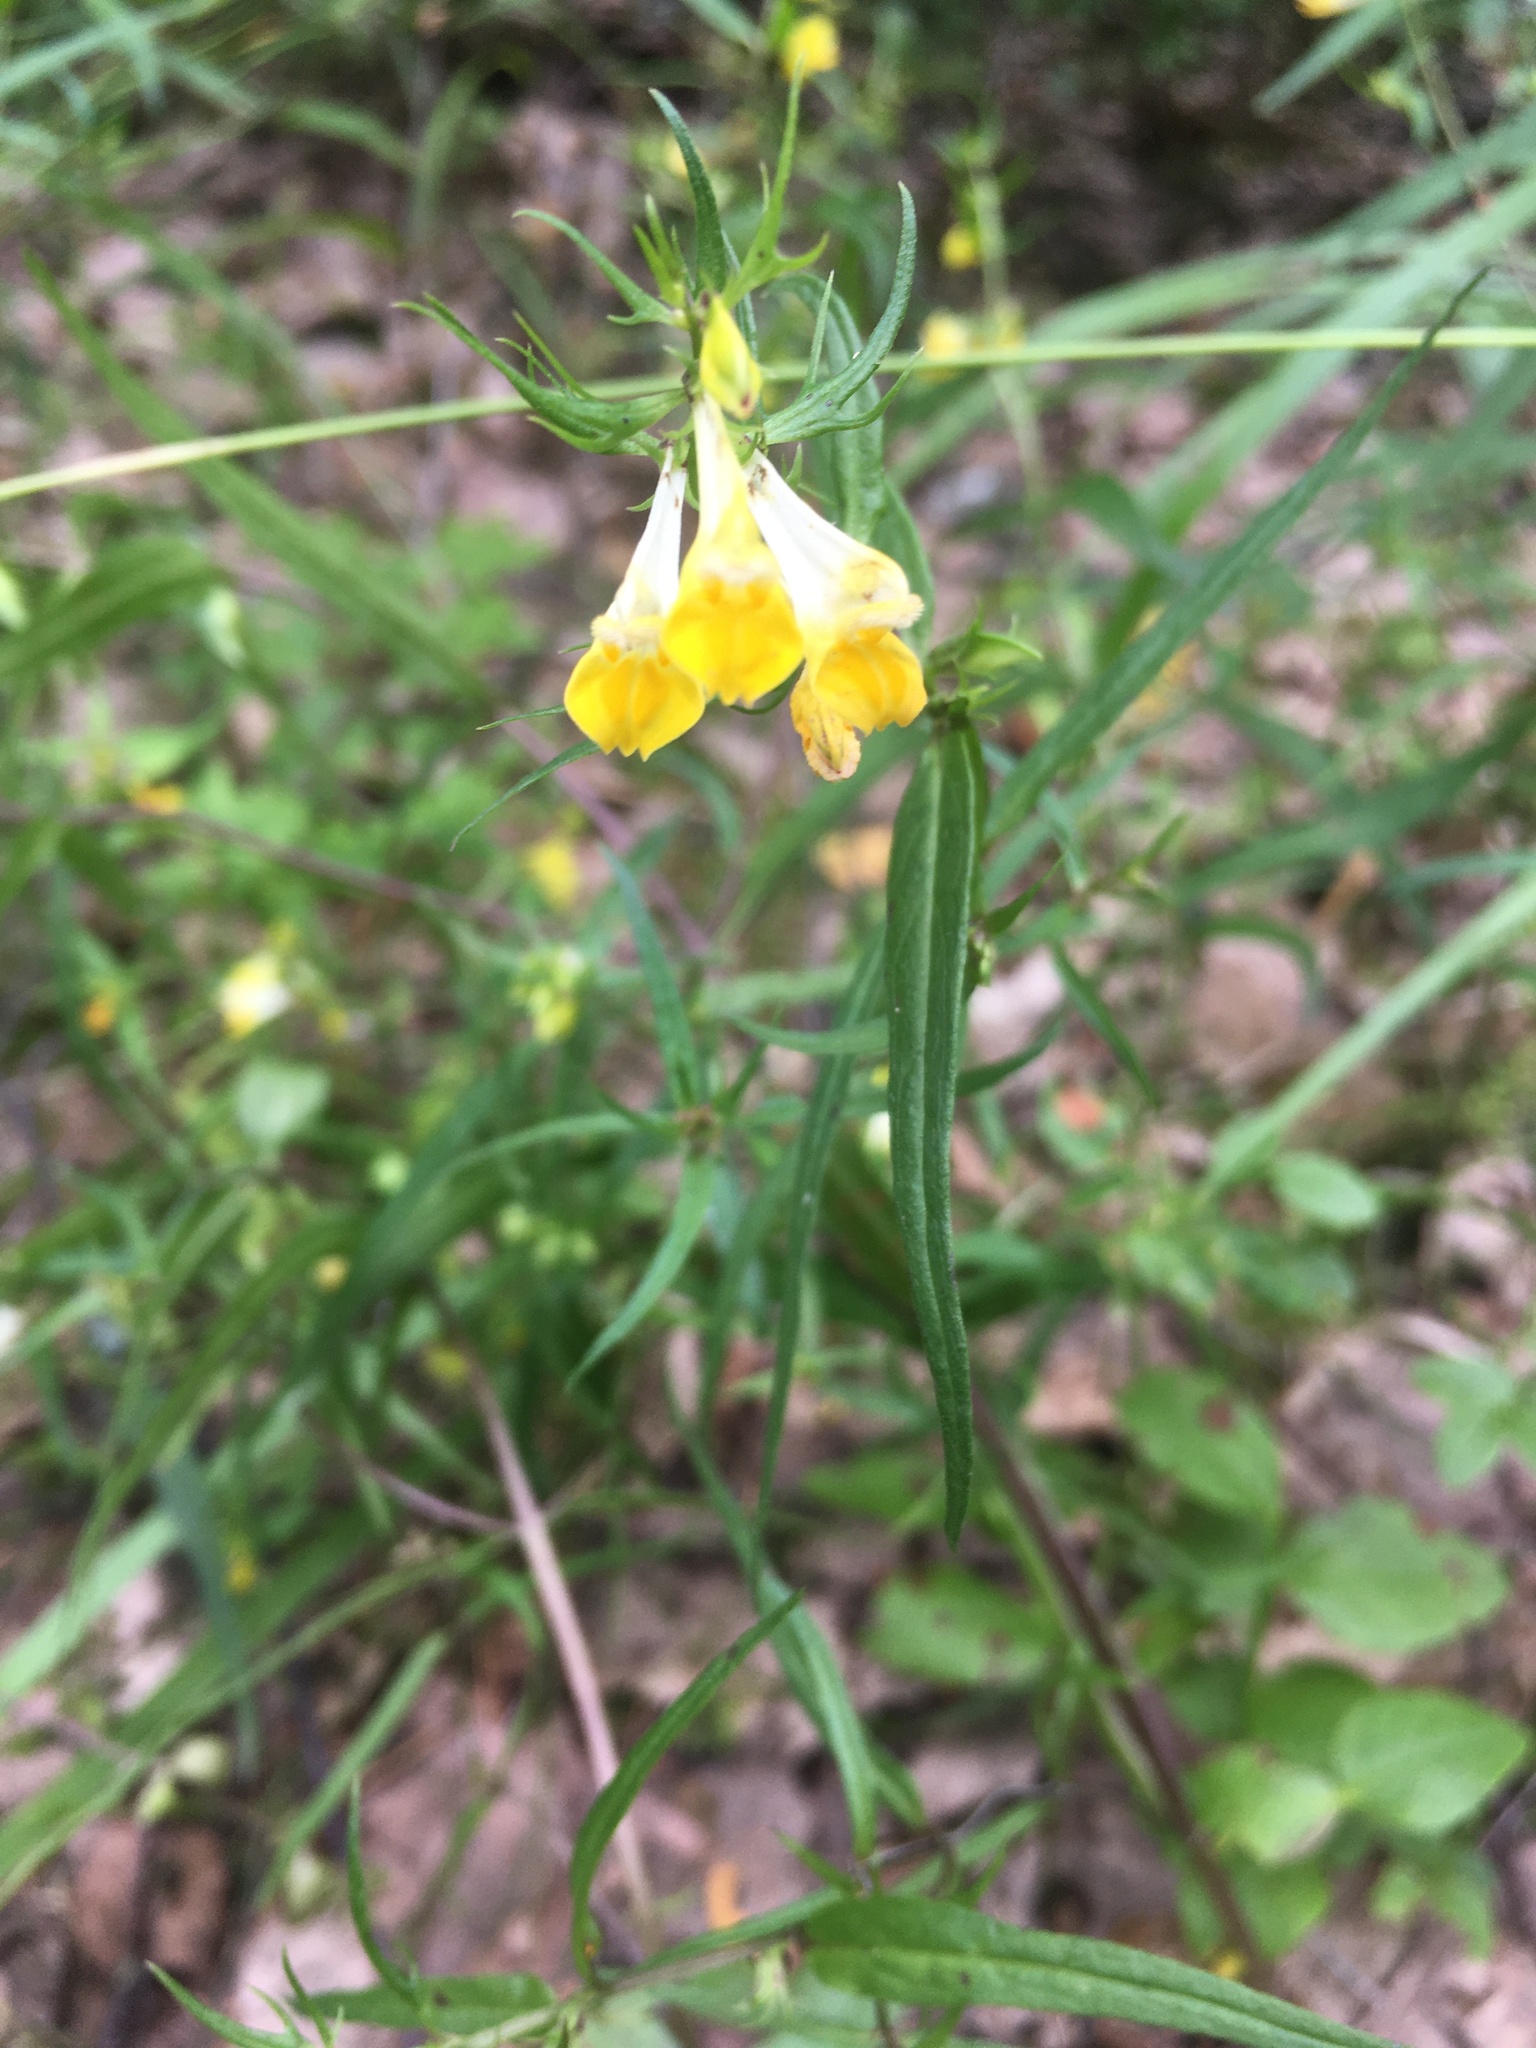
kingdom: Plantae
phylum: Tracheophyta
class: Magnoliopsida
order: Lamiales
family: Orobanchaceae
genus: Melampyrum
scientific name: Melampyrum pratense
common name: Common cow-wheat
